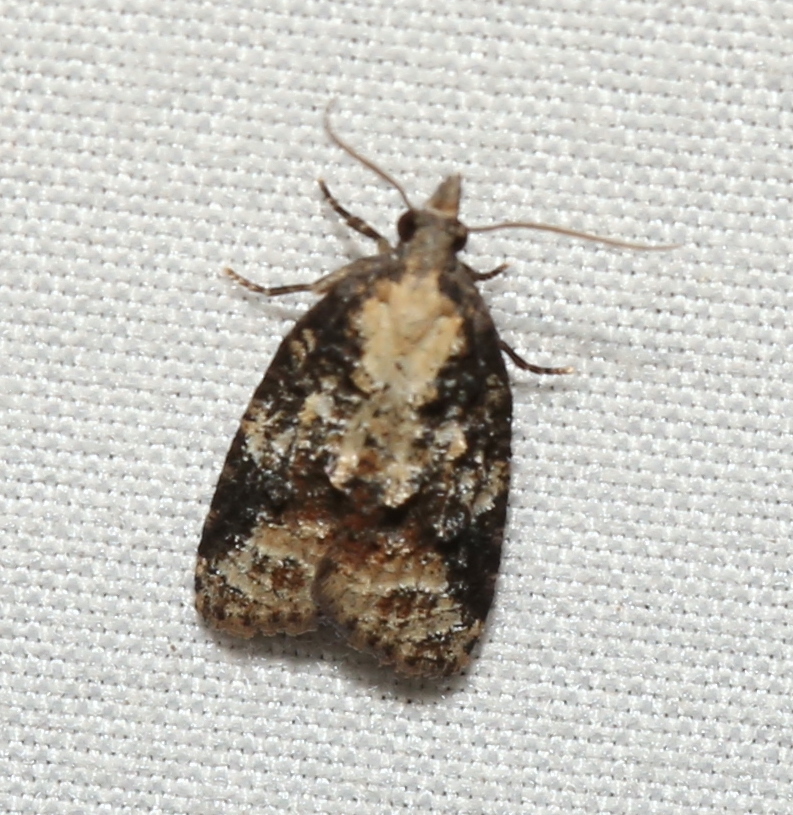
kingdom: Animalia
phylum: Arthropoda
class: Insecta
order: Lepidoptera
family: Tortricidae
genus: Platynota
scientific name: Platynota exasperatana
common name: Exasperating platynota moth
